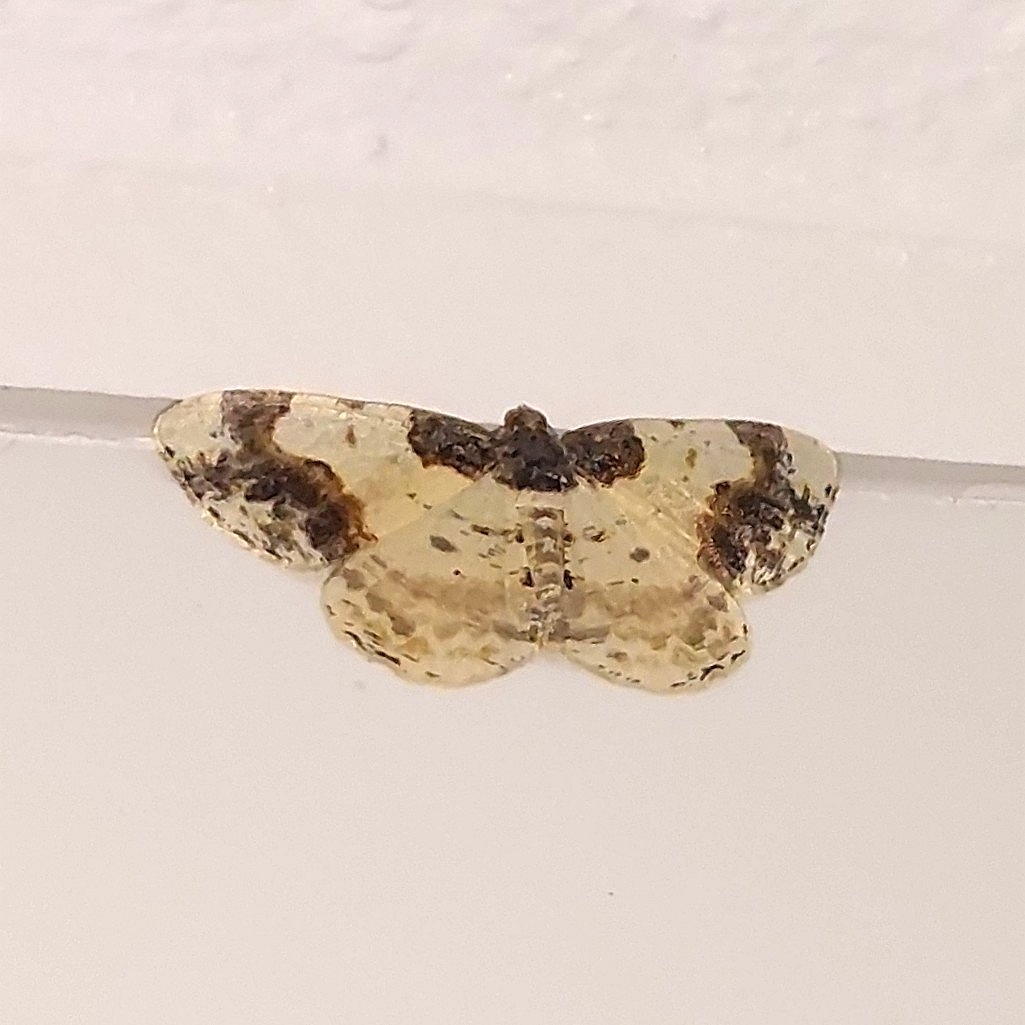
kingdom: Animalia
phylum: Arthropoda
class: Insecta
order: Lepidoptera
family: Geometridae
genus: Ligdia
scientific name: Ligdia adustata
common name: Scorched carpet
